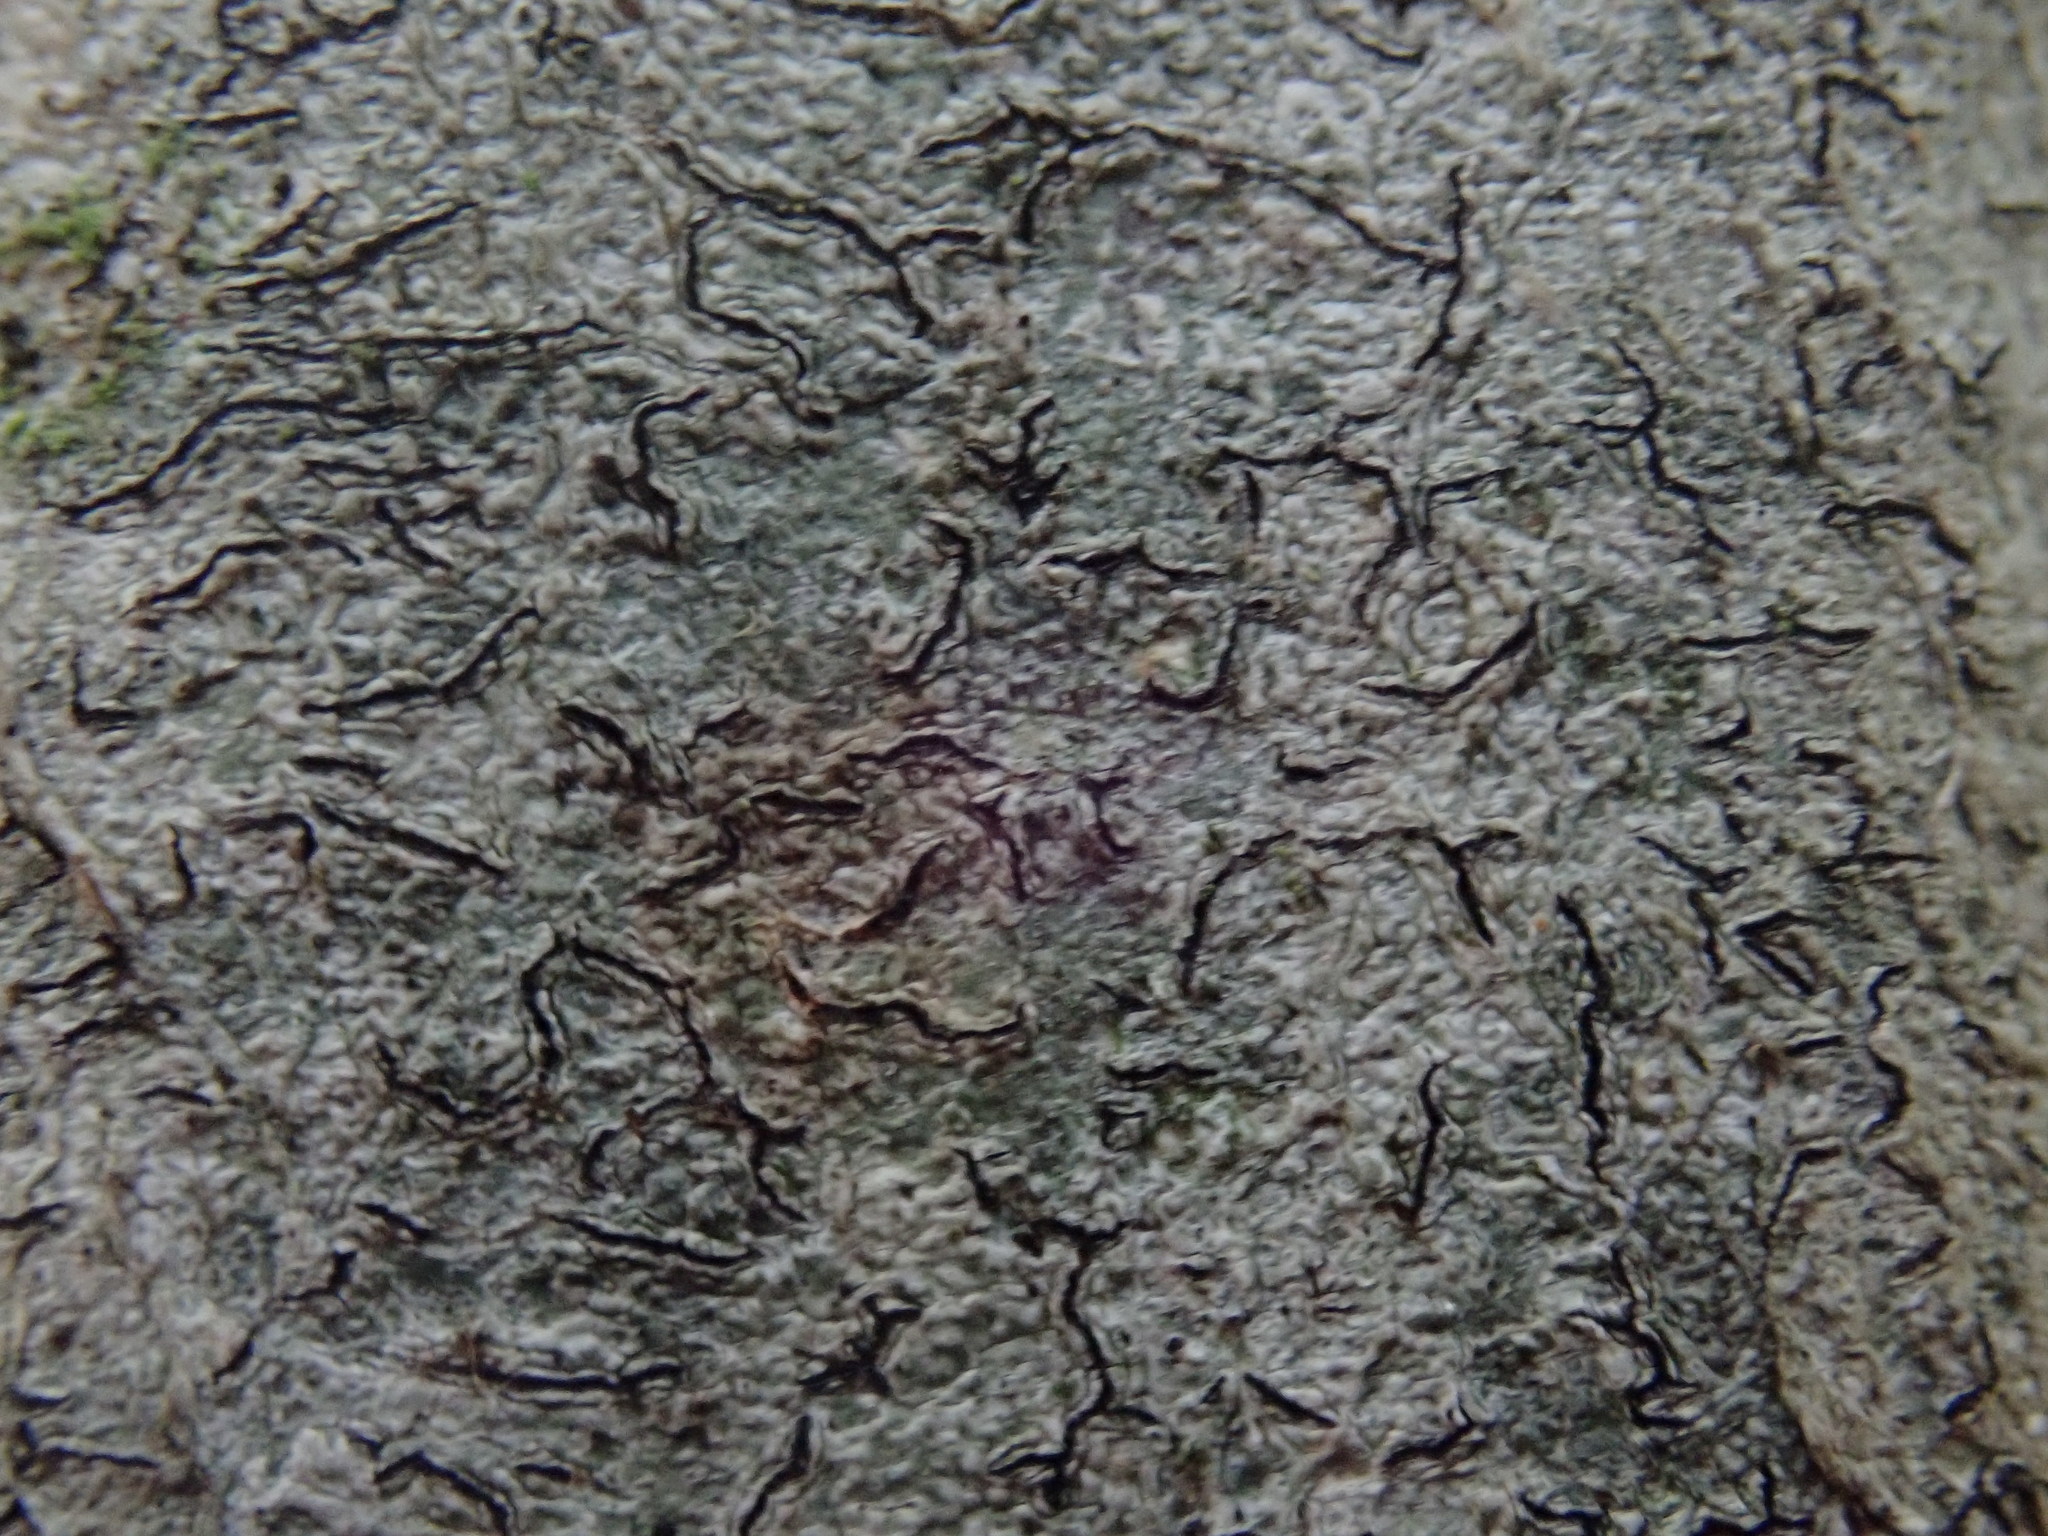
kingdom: Fungi
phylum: Ascomycota
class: Lecanoromycetes
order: Ostropales
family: Graphidaceae
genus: Graphis
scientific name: Graphis scripta
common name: Script lichen
